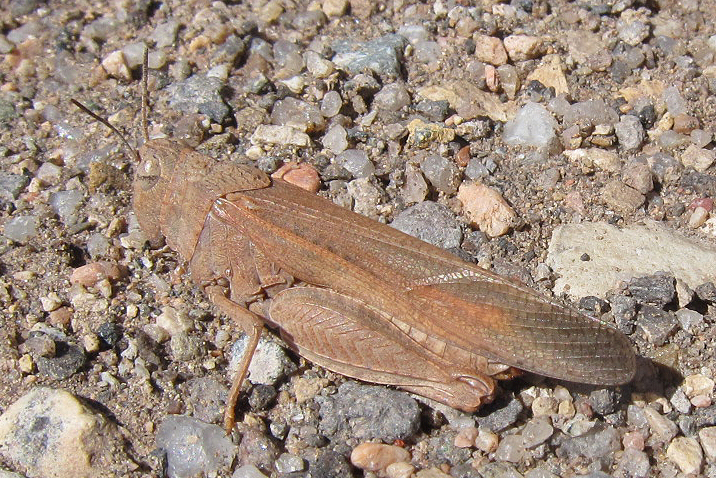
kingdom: Animalia
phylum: Arthropoda
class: Insecta
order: Orthoptera
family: Acrididae
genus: Arphia
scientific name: Arphia conspersa
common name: Speckle-winged rangeland grasshopper
